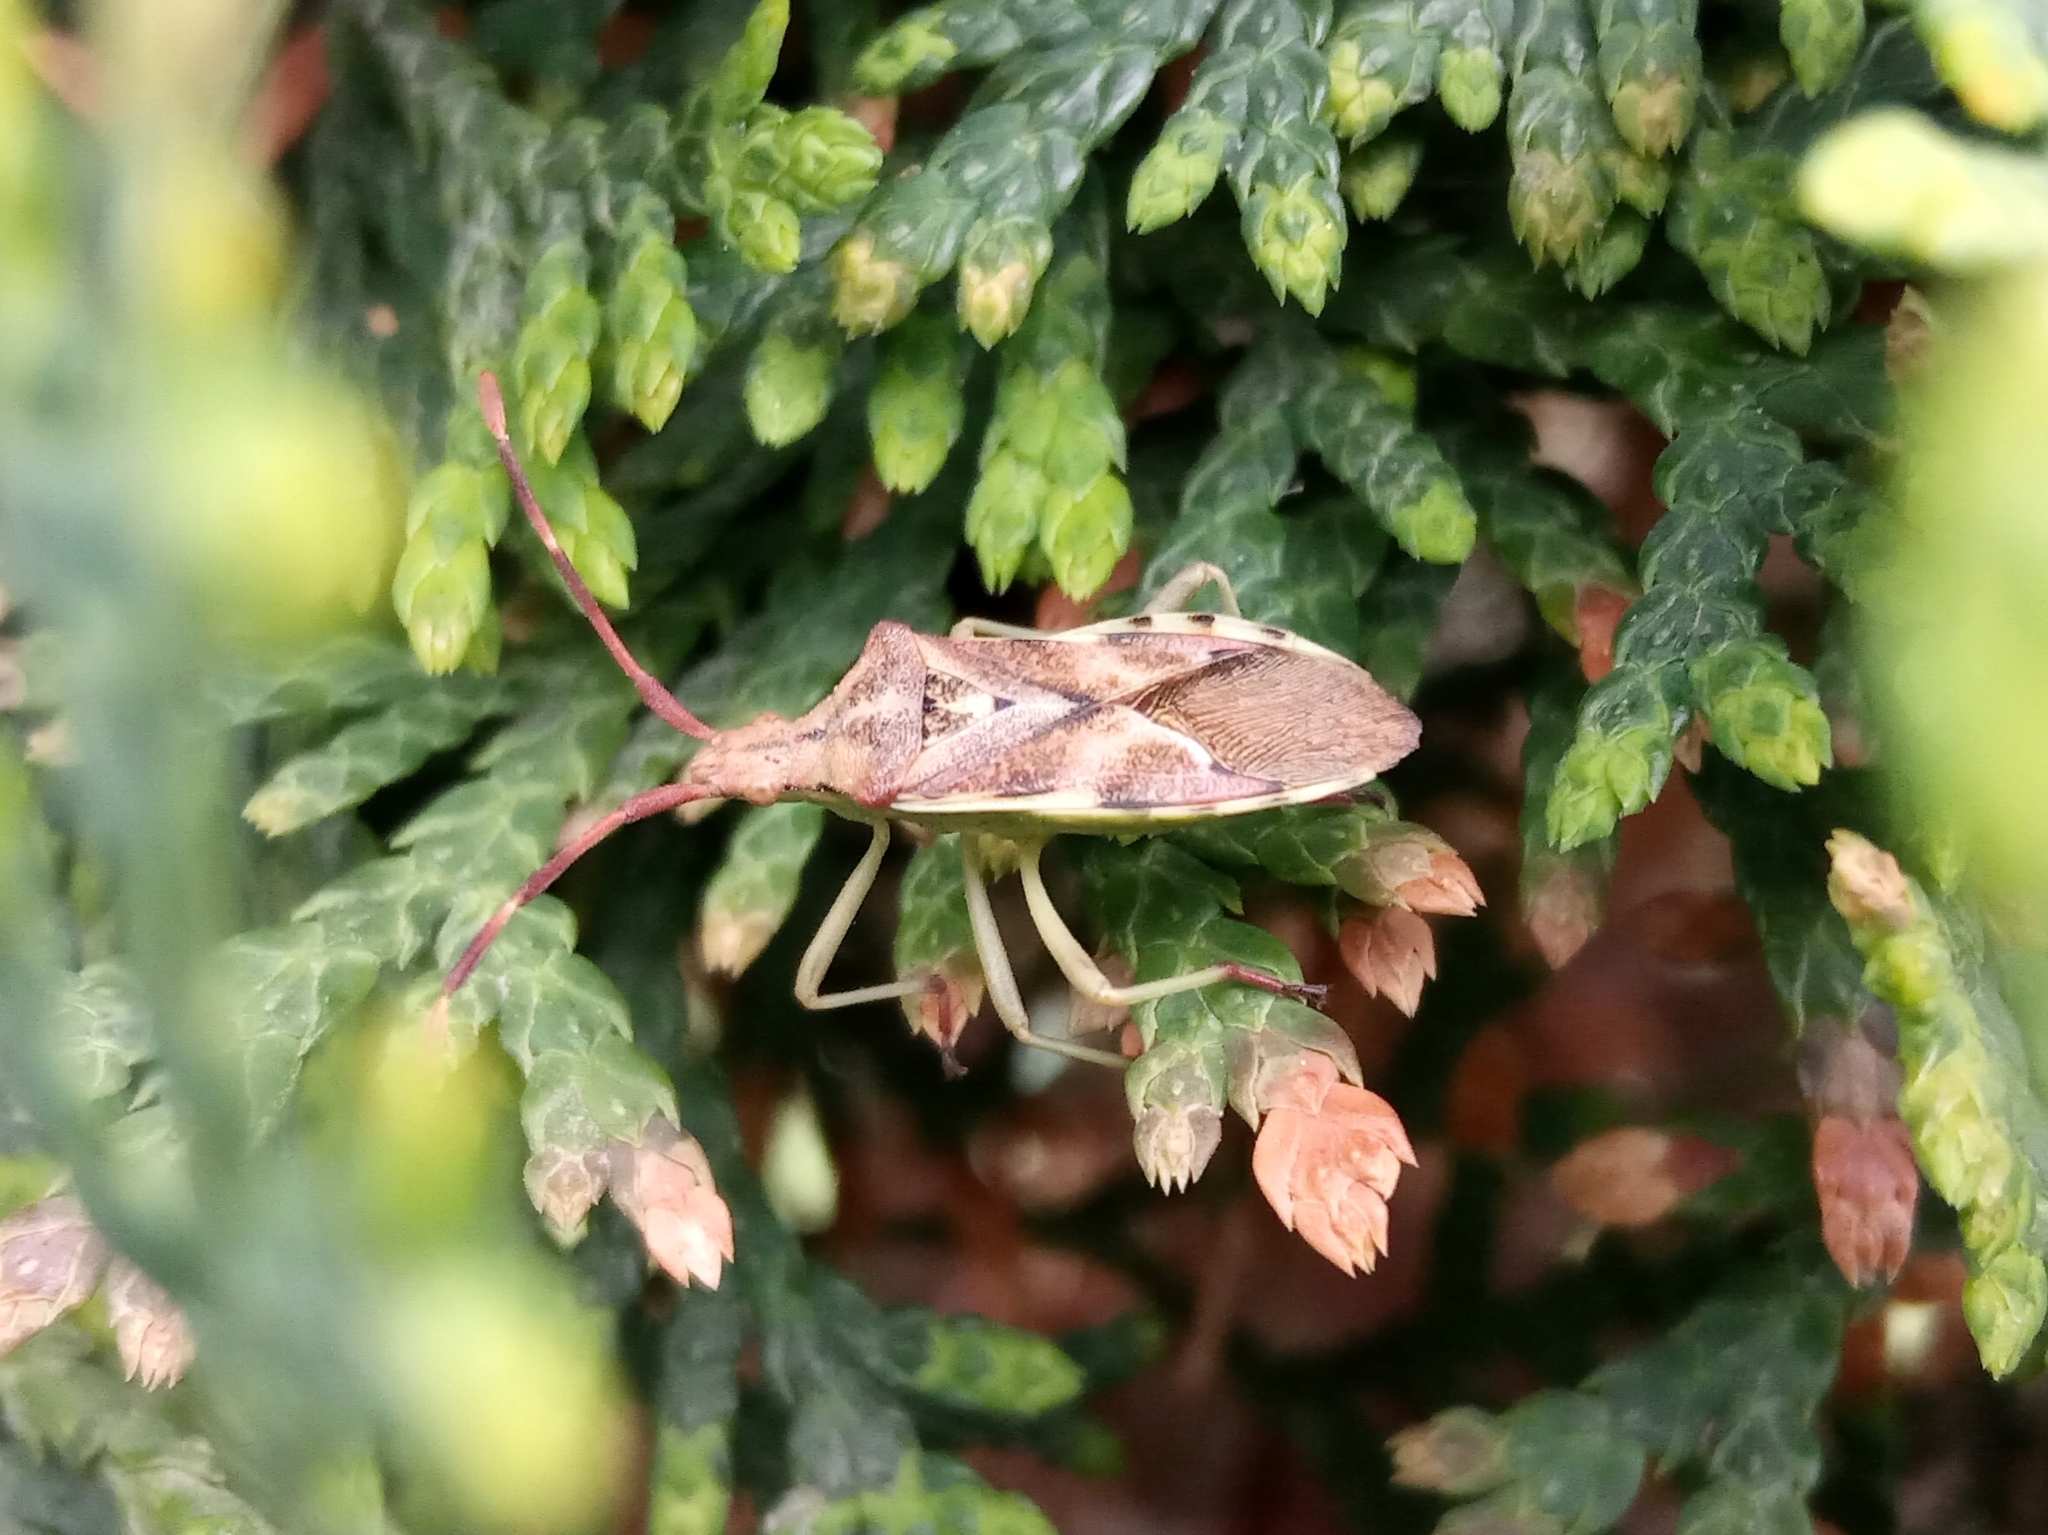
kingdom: Animalia
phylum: Arthropoda
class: Insecta
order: Hemiptera
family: Coreidae
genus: Gonocerus
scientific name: Gonocerus juniperi
